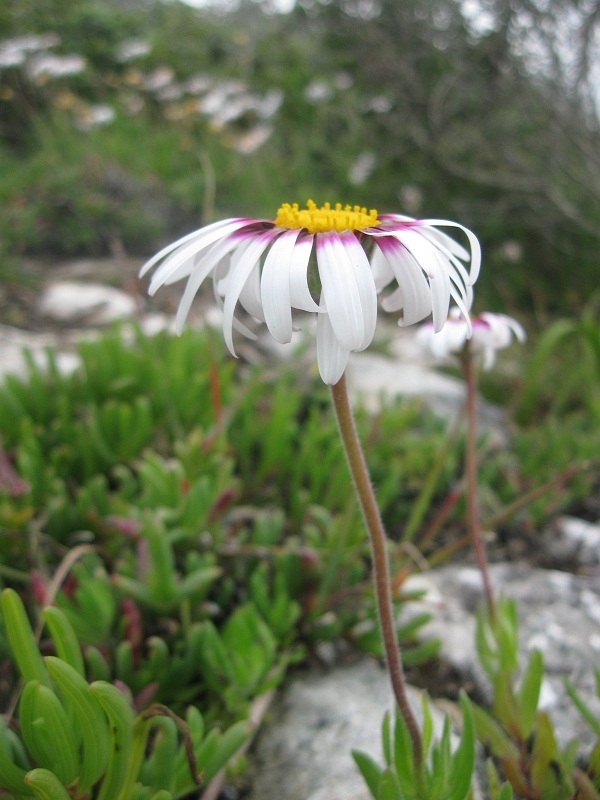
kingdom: Plantae
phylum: Tracheophyta
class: Magnoliopsida
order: Asterales
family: Asteraceae
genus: Felicia
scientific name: Felicia elongata
